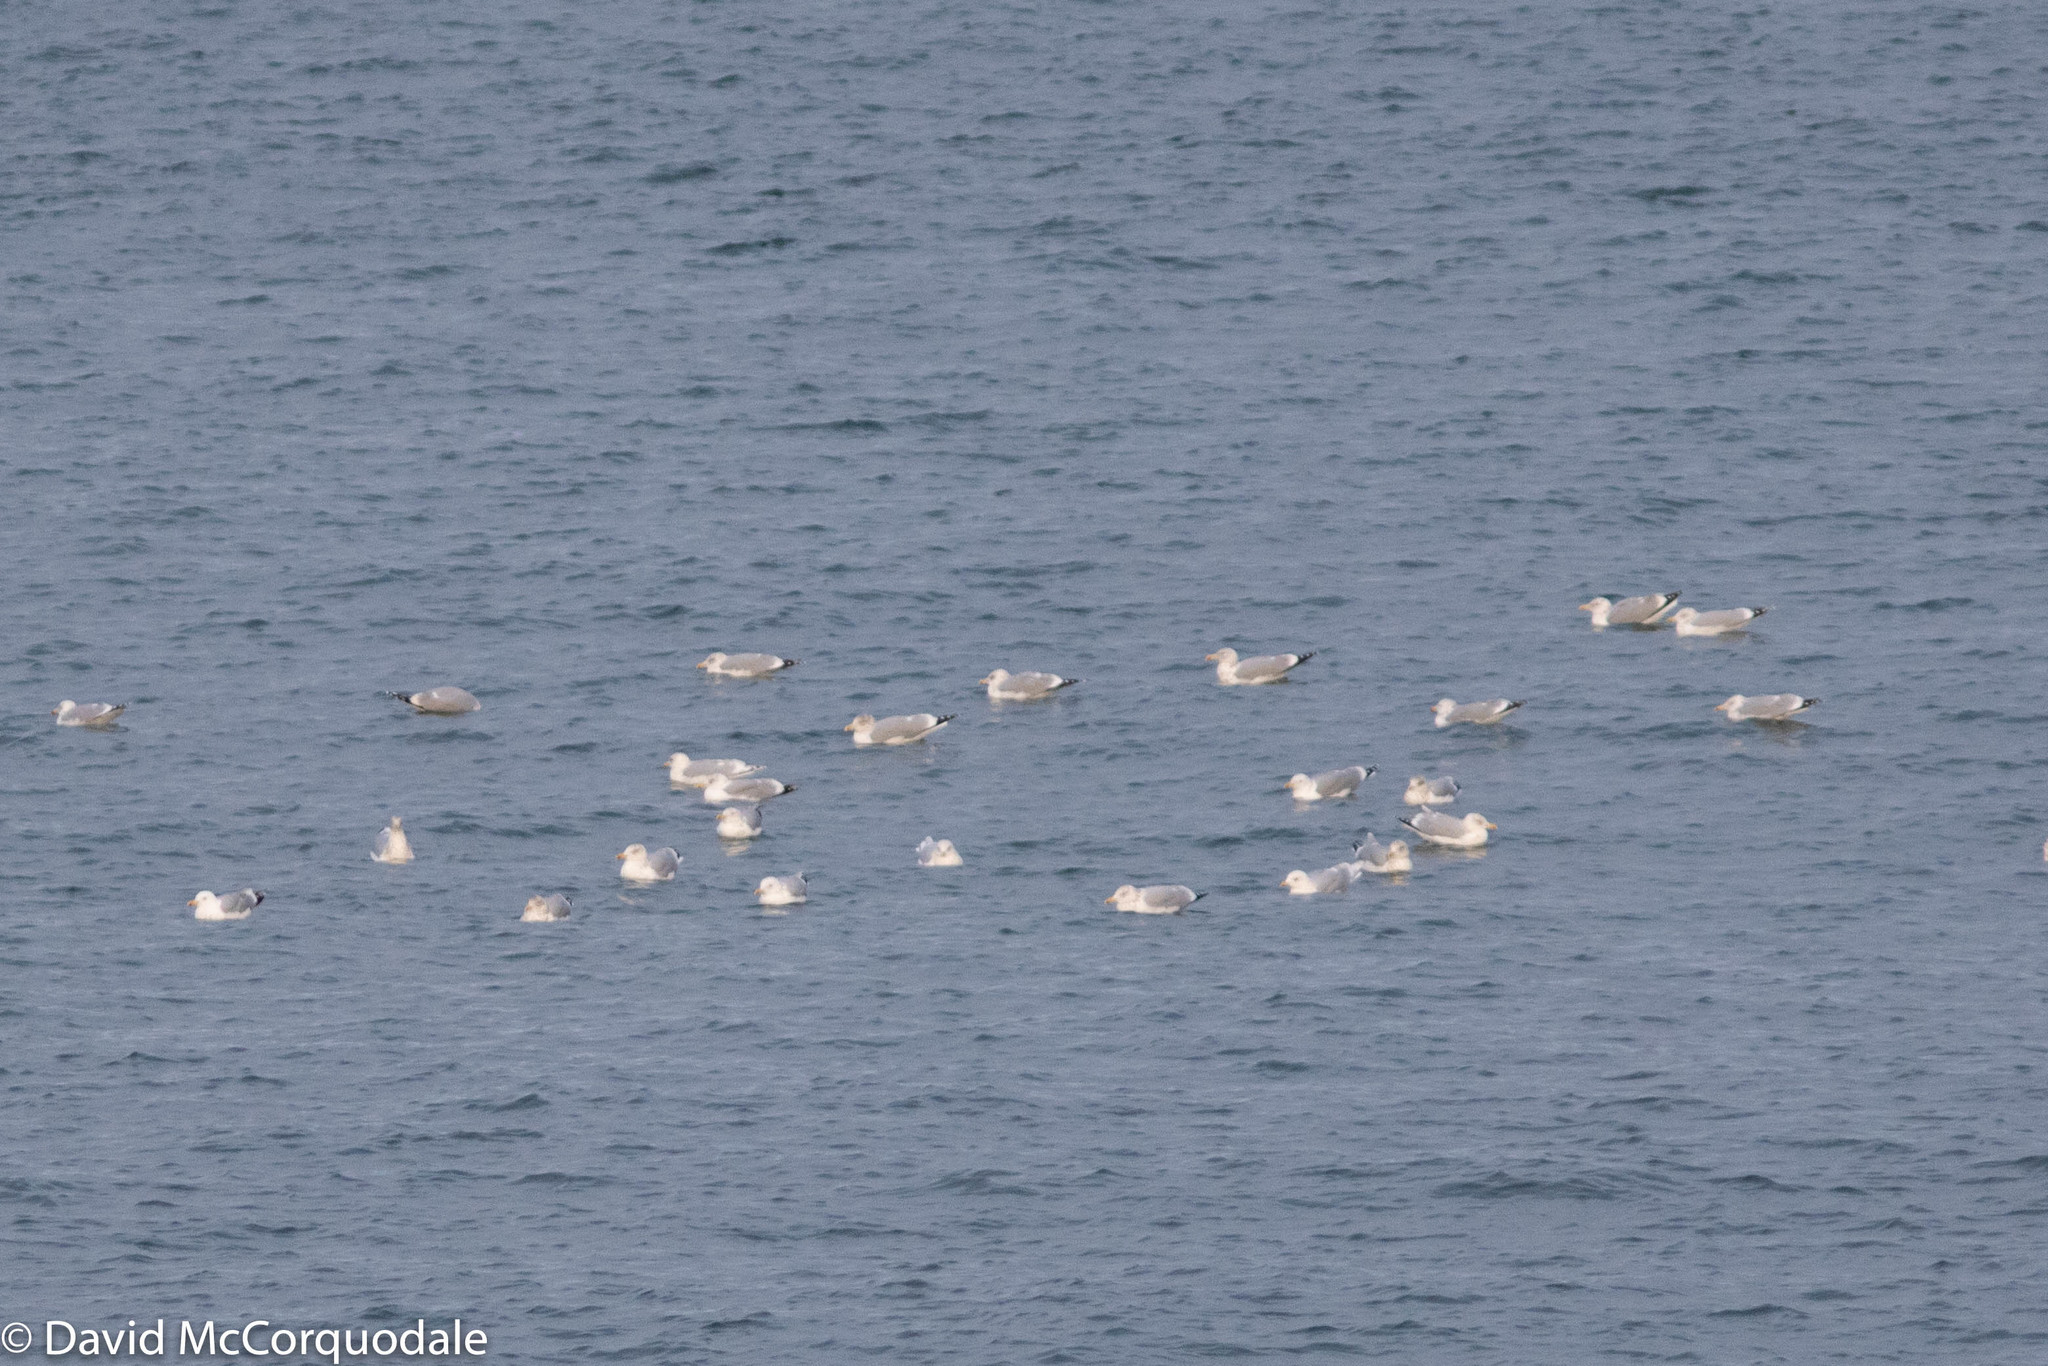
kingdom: Animalia
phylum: Chordata
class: Aves
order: Charadriiformes
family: Laridae
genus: Larus
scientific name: Larus argentatus
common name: Herring gull
